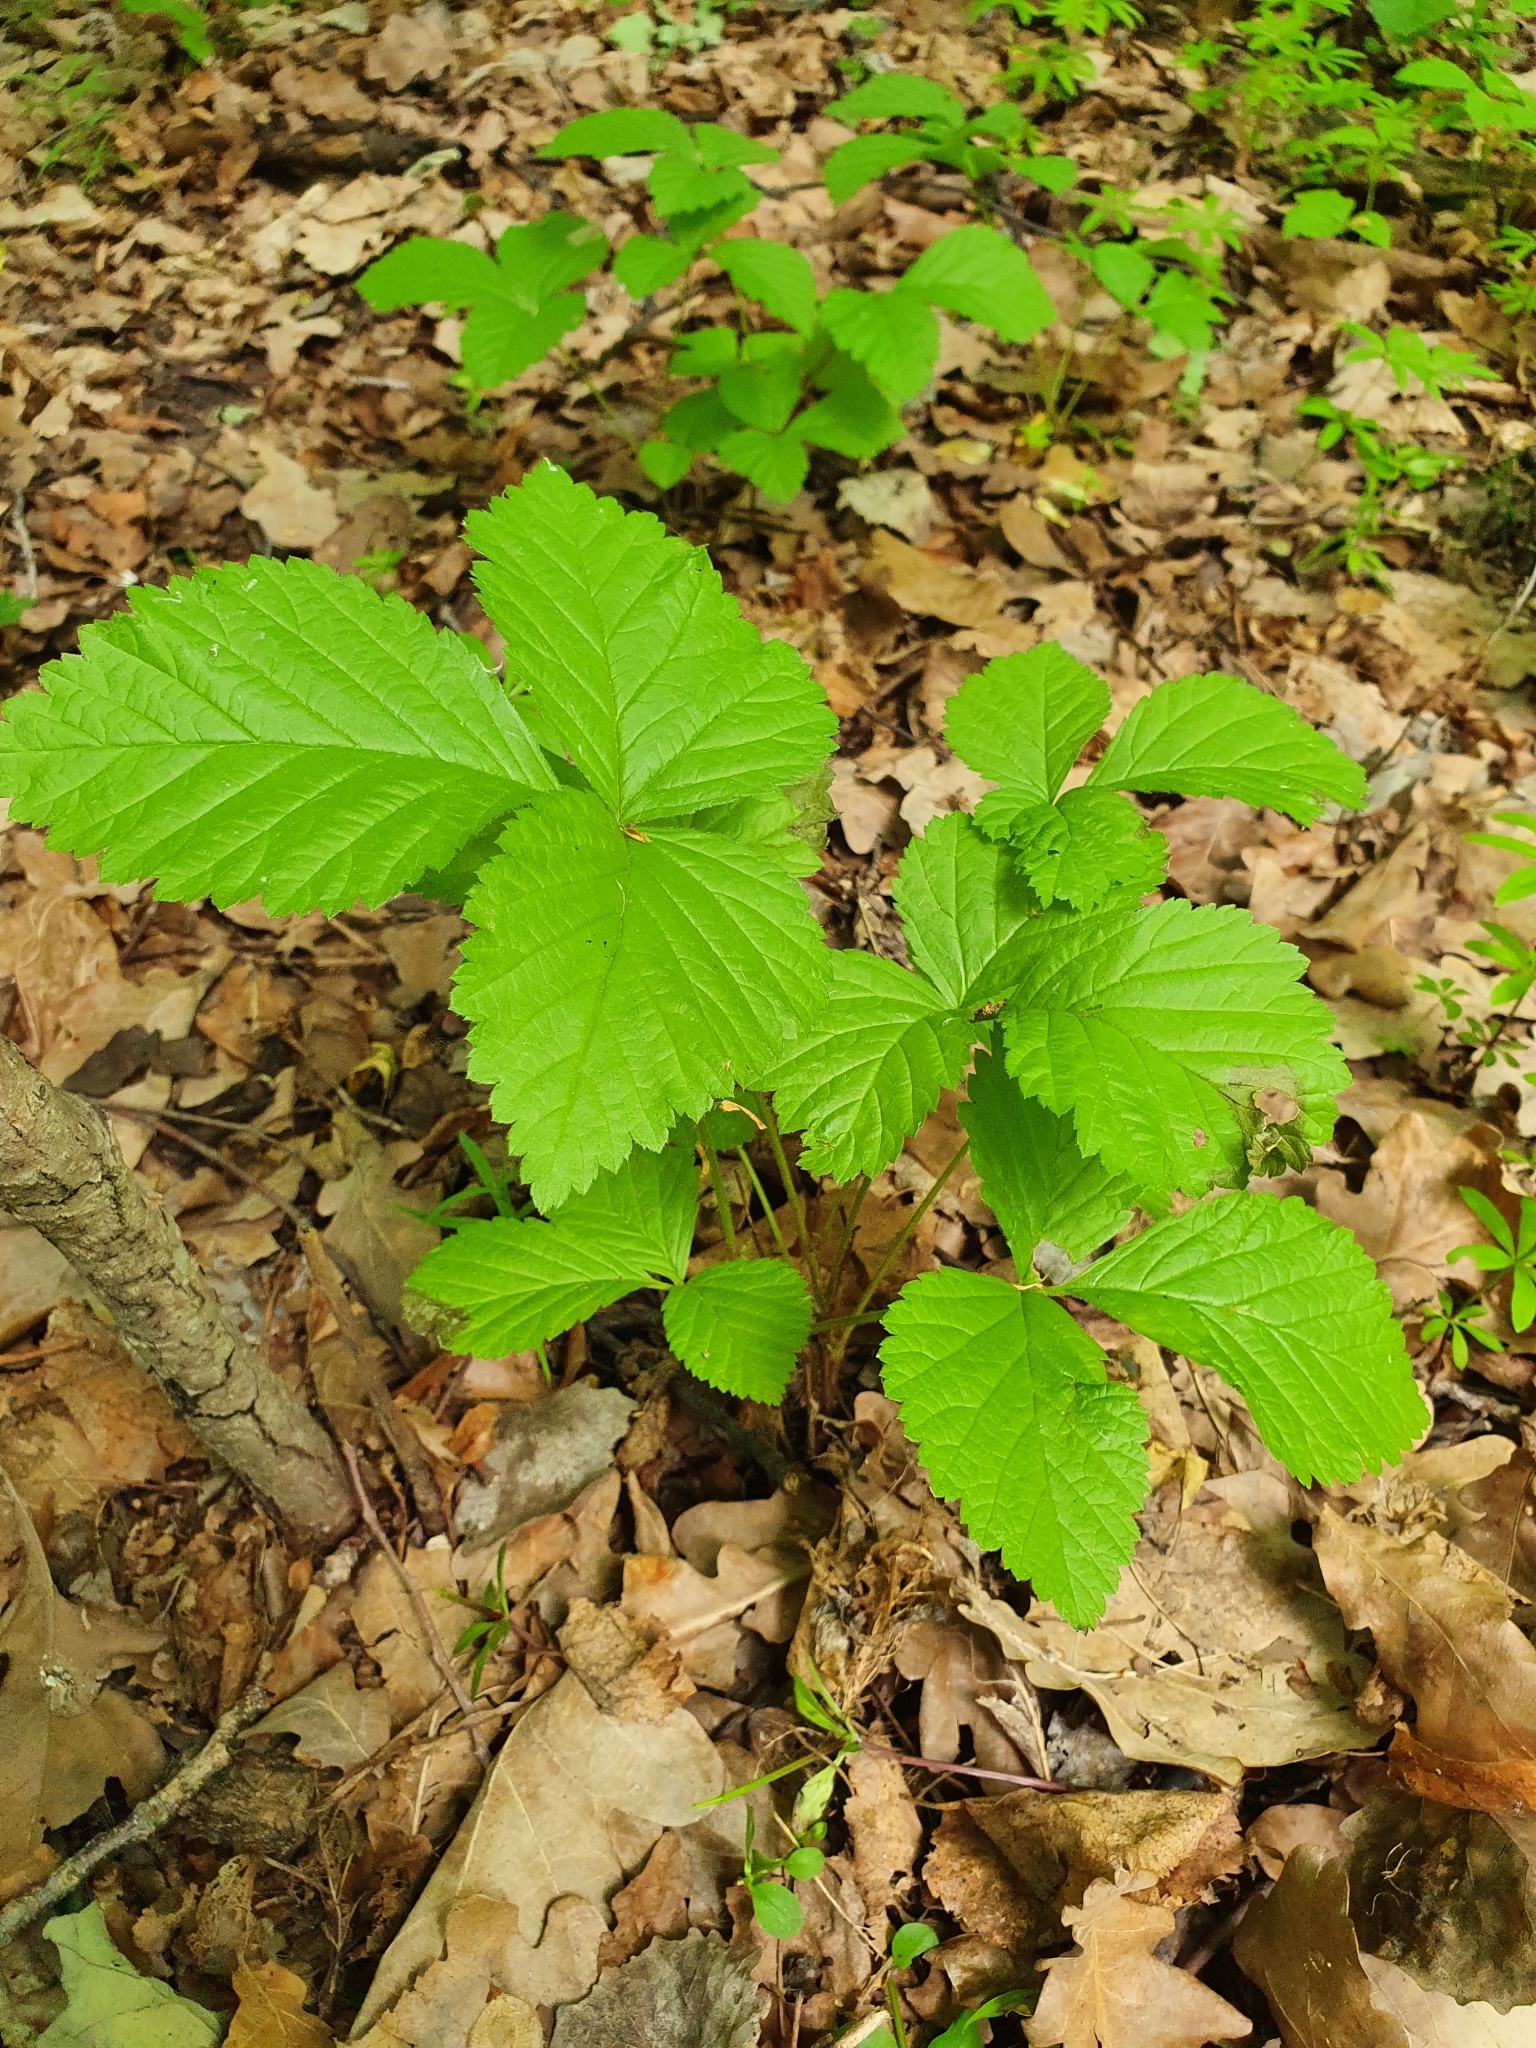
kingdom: Plantae
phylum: Tracheophyta
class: Magnoliopsida
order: Rosales
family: Rosaceae
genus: Rubus
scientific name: Rubus saxatilis
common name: Stone bramble
